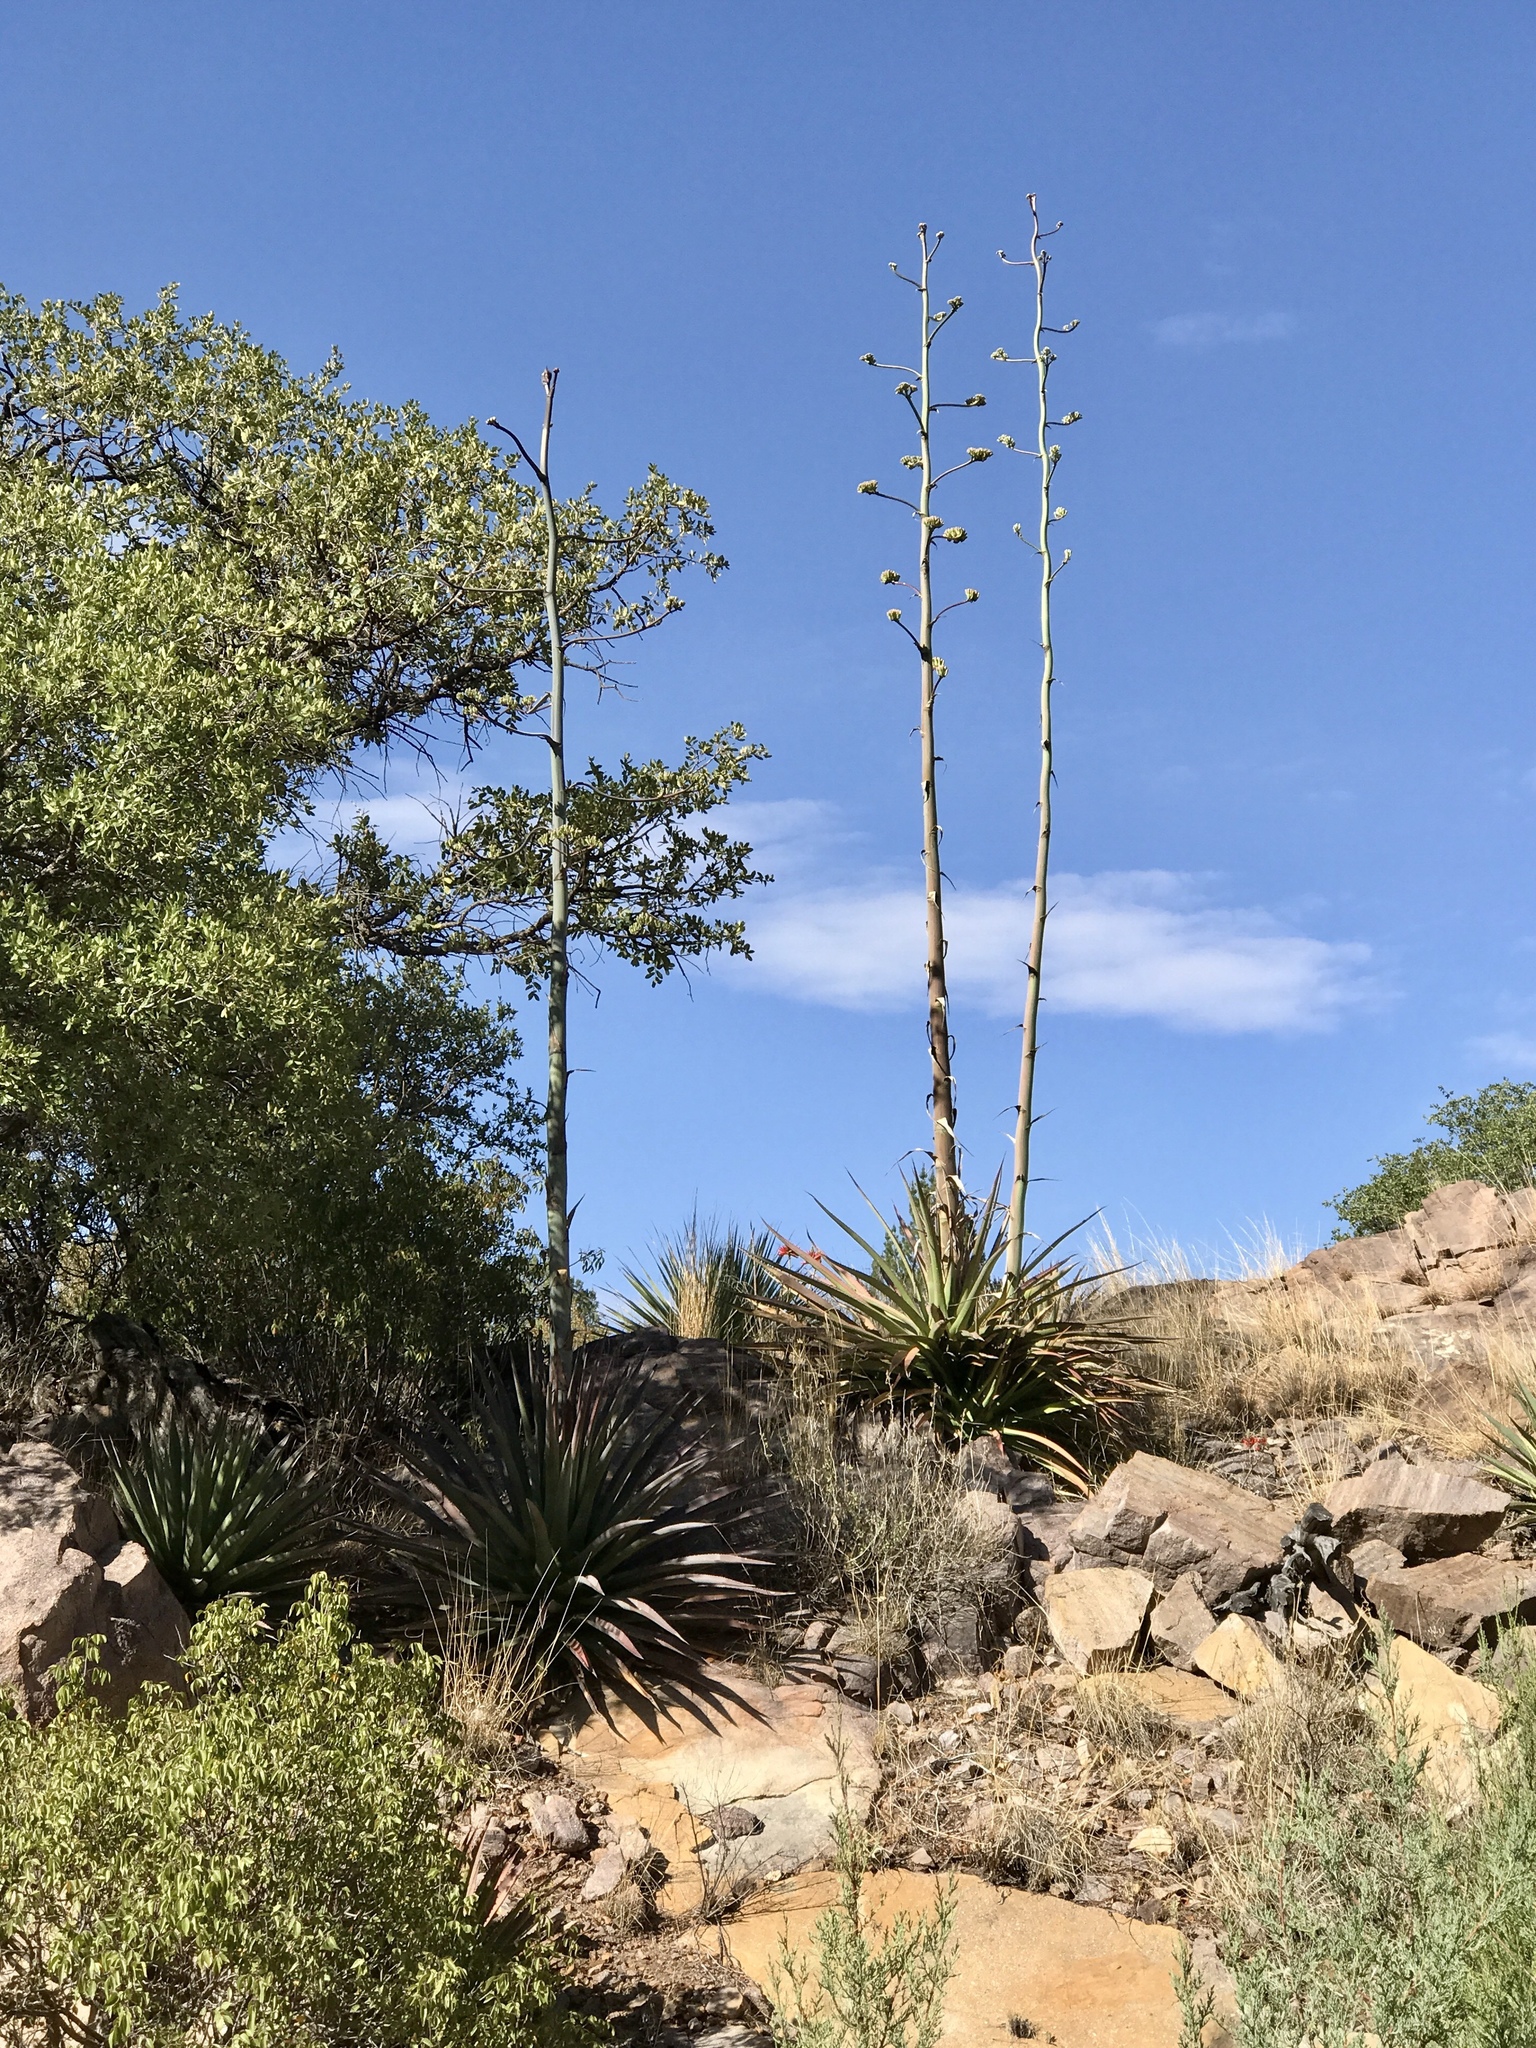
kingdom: Plantae
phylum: Tracheophyta
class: Liliopsida
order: Asparagales
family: Asparagaceae
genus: Agave
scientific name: Agave palmeri
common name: Palmer agave
